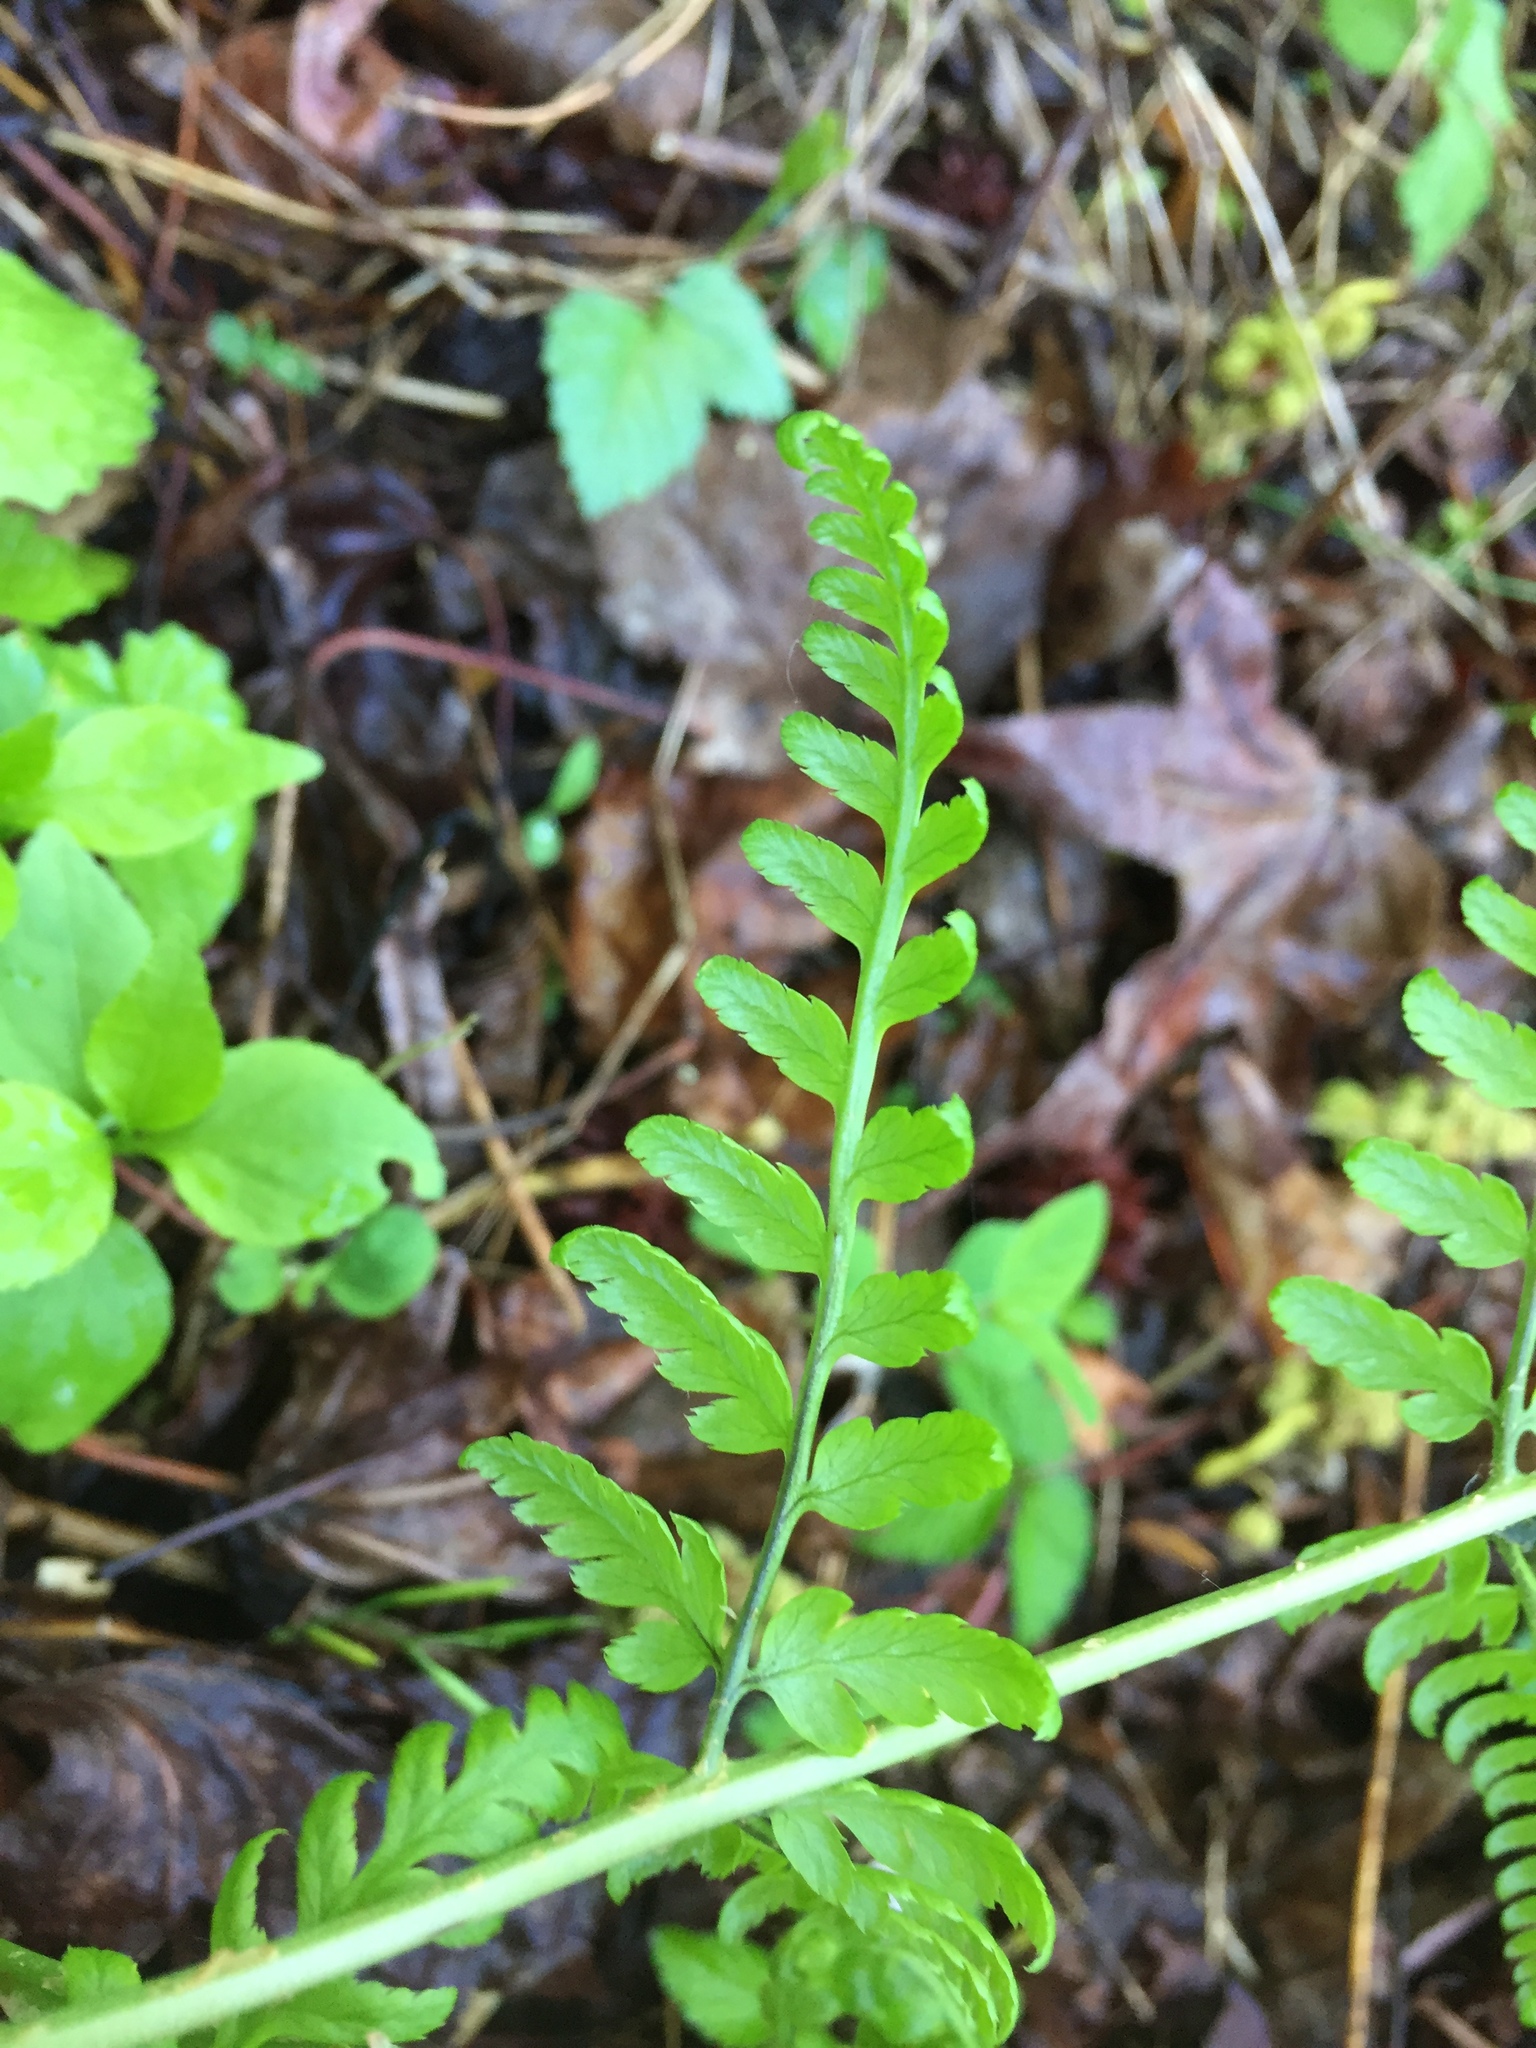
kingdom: Plantae
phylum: Tracheophyta
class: Polypodiopsida
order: Polypodiales
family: Dryopteridaceae
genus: Dryopteris
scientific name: Dryopteris carthusiana
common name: Narrow buckler-fern
